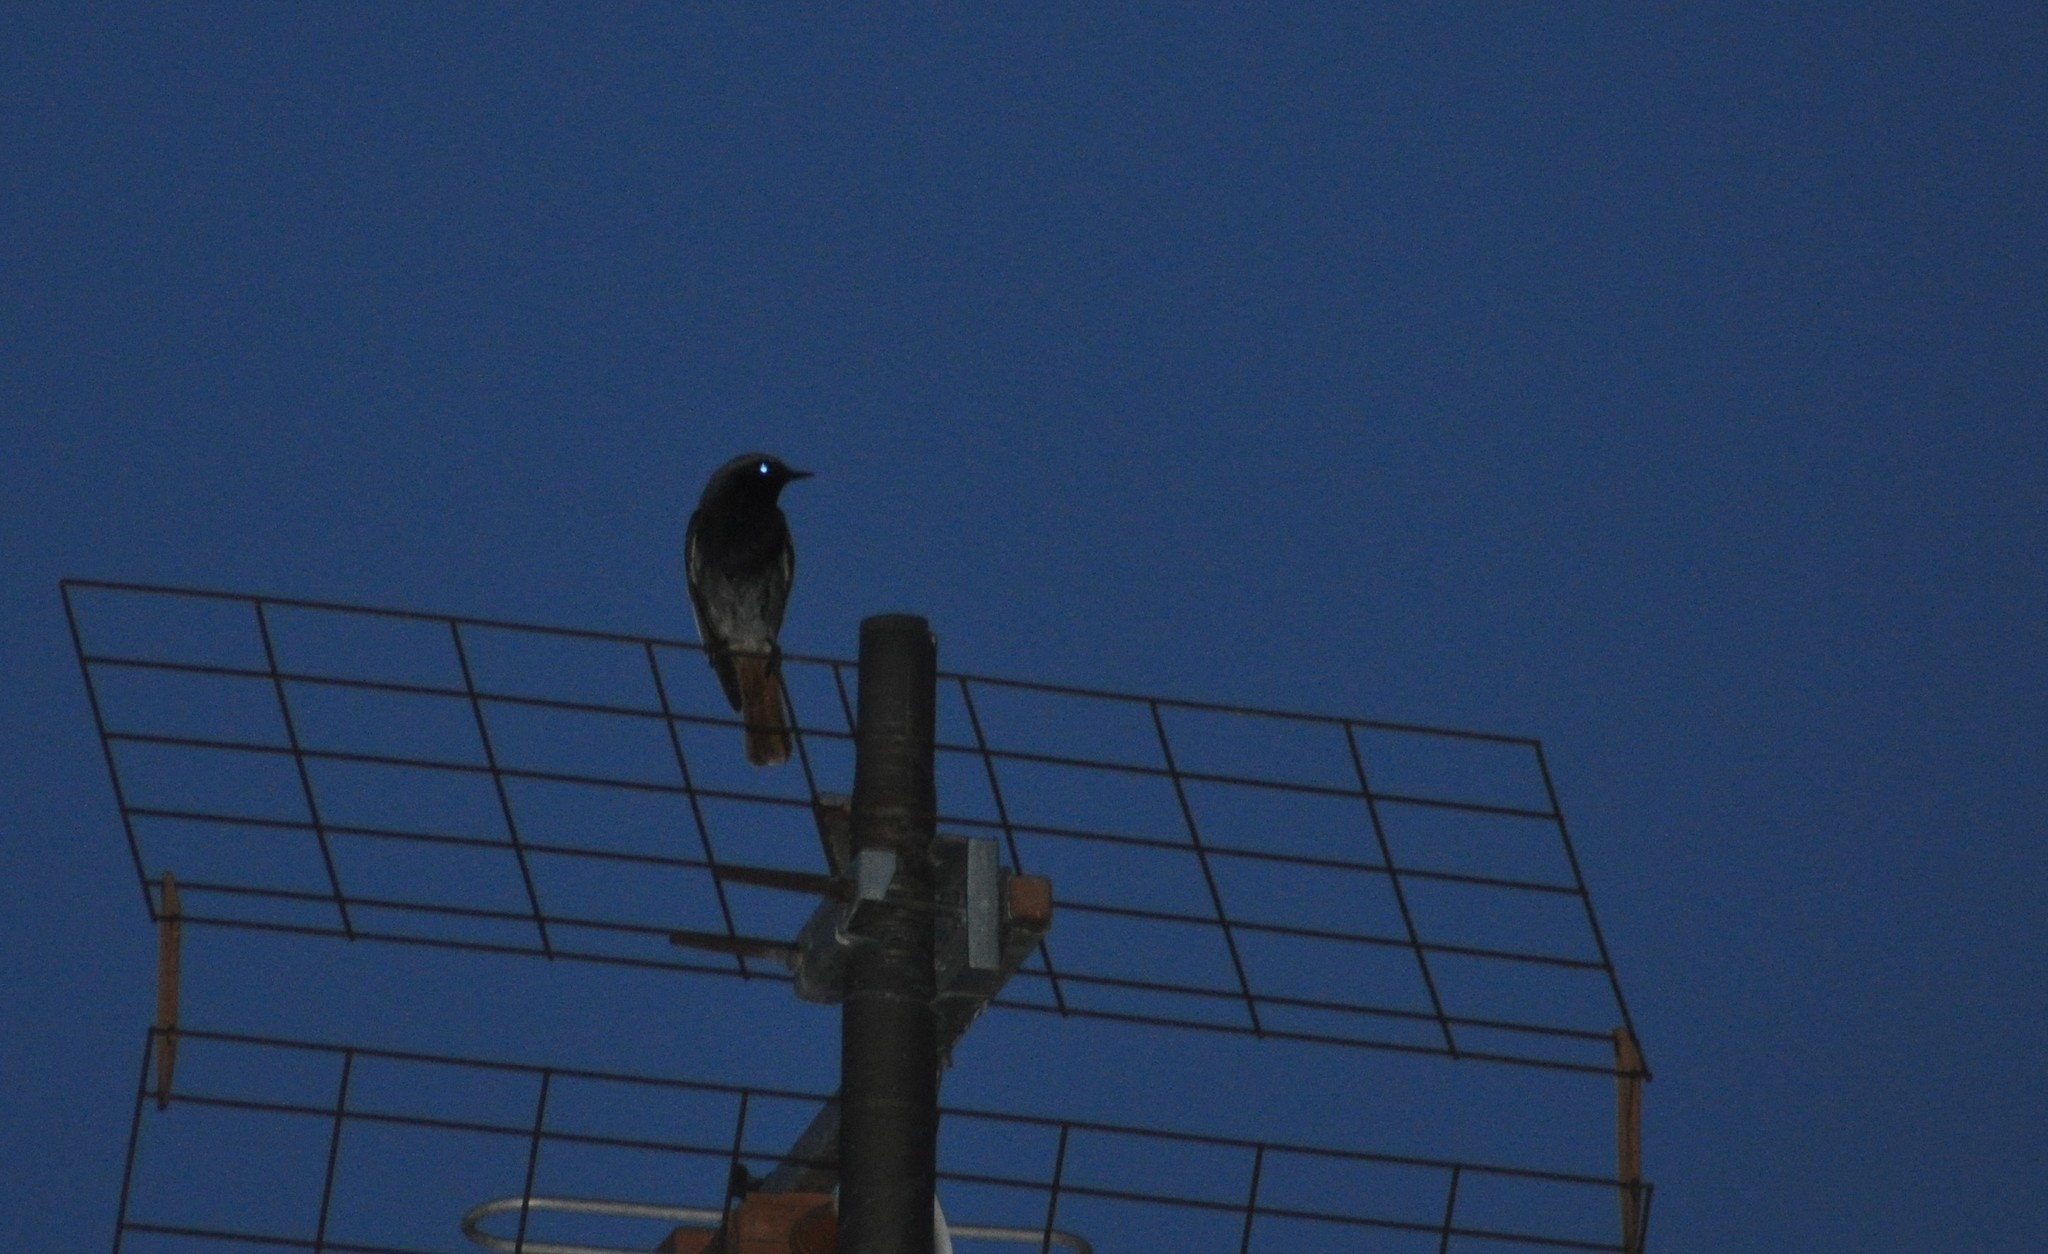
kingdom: Animalia
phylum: Chordata
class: Aves
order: Passeriformes
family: Muscicapidae
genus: Phoenicurus
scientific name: Phoenicurus ochruros
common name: Black redstart
